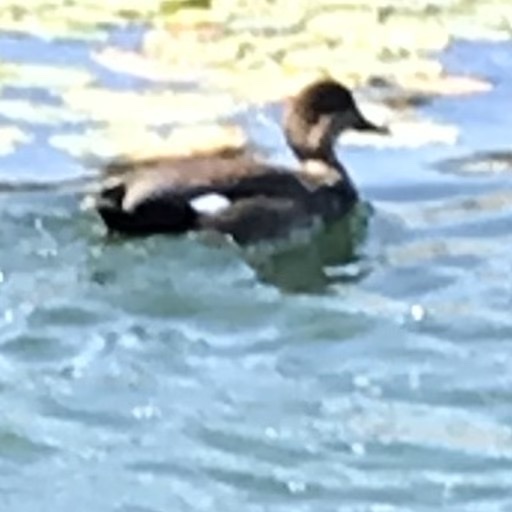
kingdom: Animalia
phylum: Chordata
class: Aves
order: Anseriformes
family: Anatidae
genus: Mareca
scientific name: Mareca strepera
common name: Gadwall
